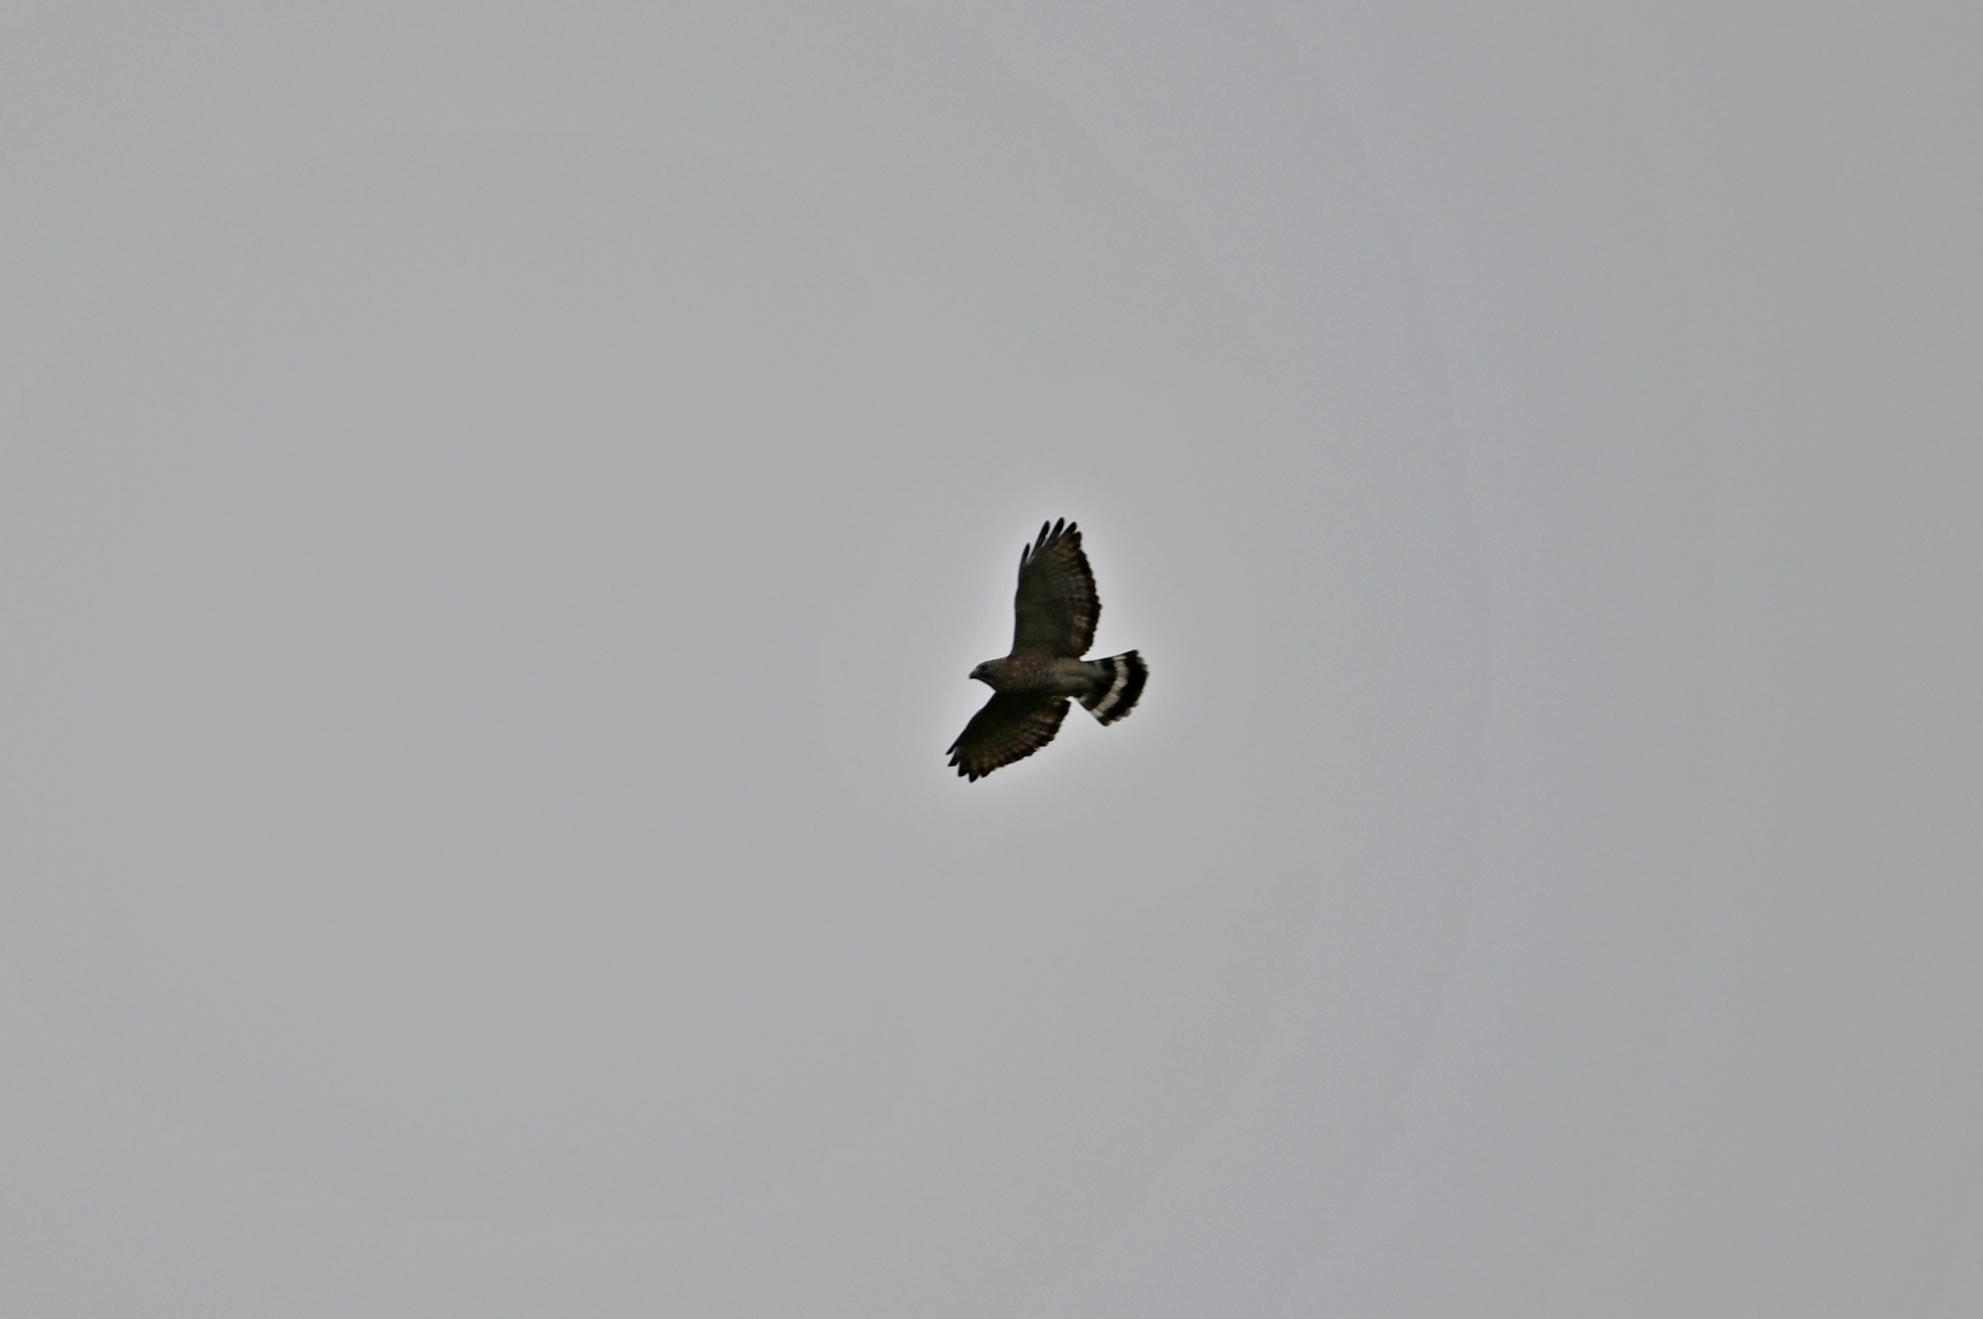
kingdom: Animalia
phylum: Chordata
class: Aves
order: Accipitriformes
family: Accipitridae
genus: Buteo
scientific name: Buteo platypterus
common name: Broad-winged hawk
